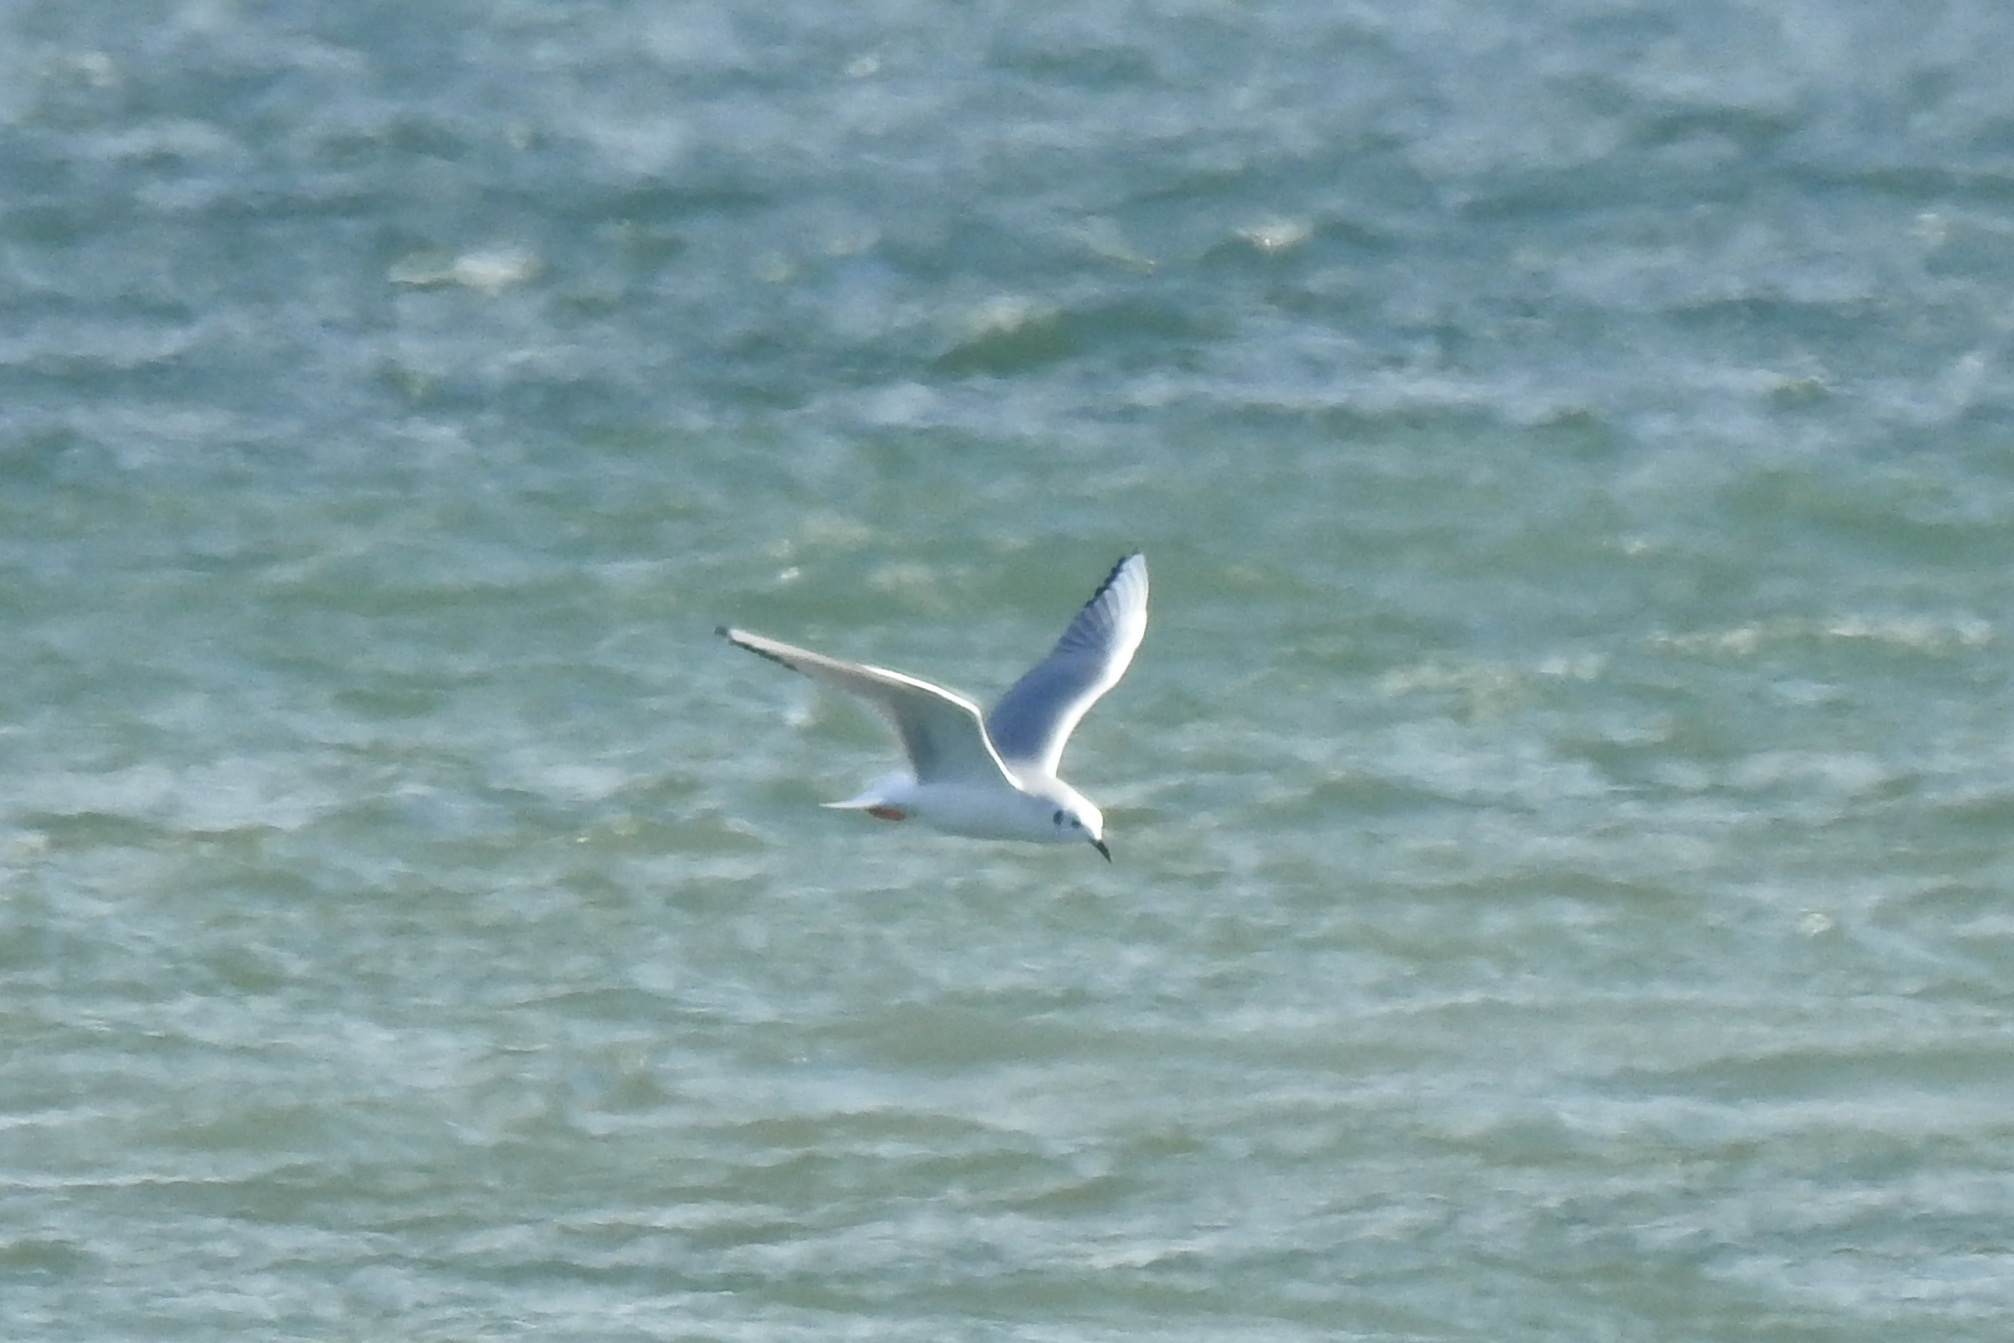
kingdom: Animalia
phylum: Chordata
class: Aves
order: Charadriiformes
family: Laridae
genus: Chroicocephalus
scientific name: Chroicocephalus philadelphia
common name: Bonaparte's gull
